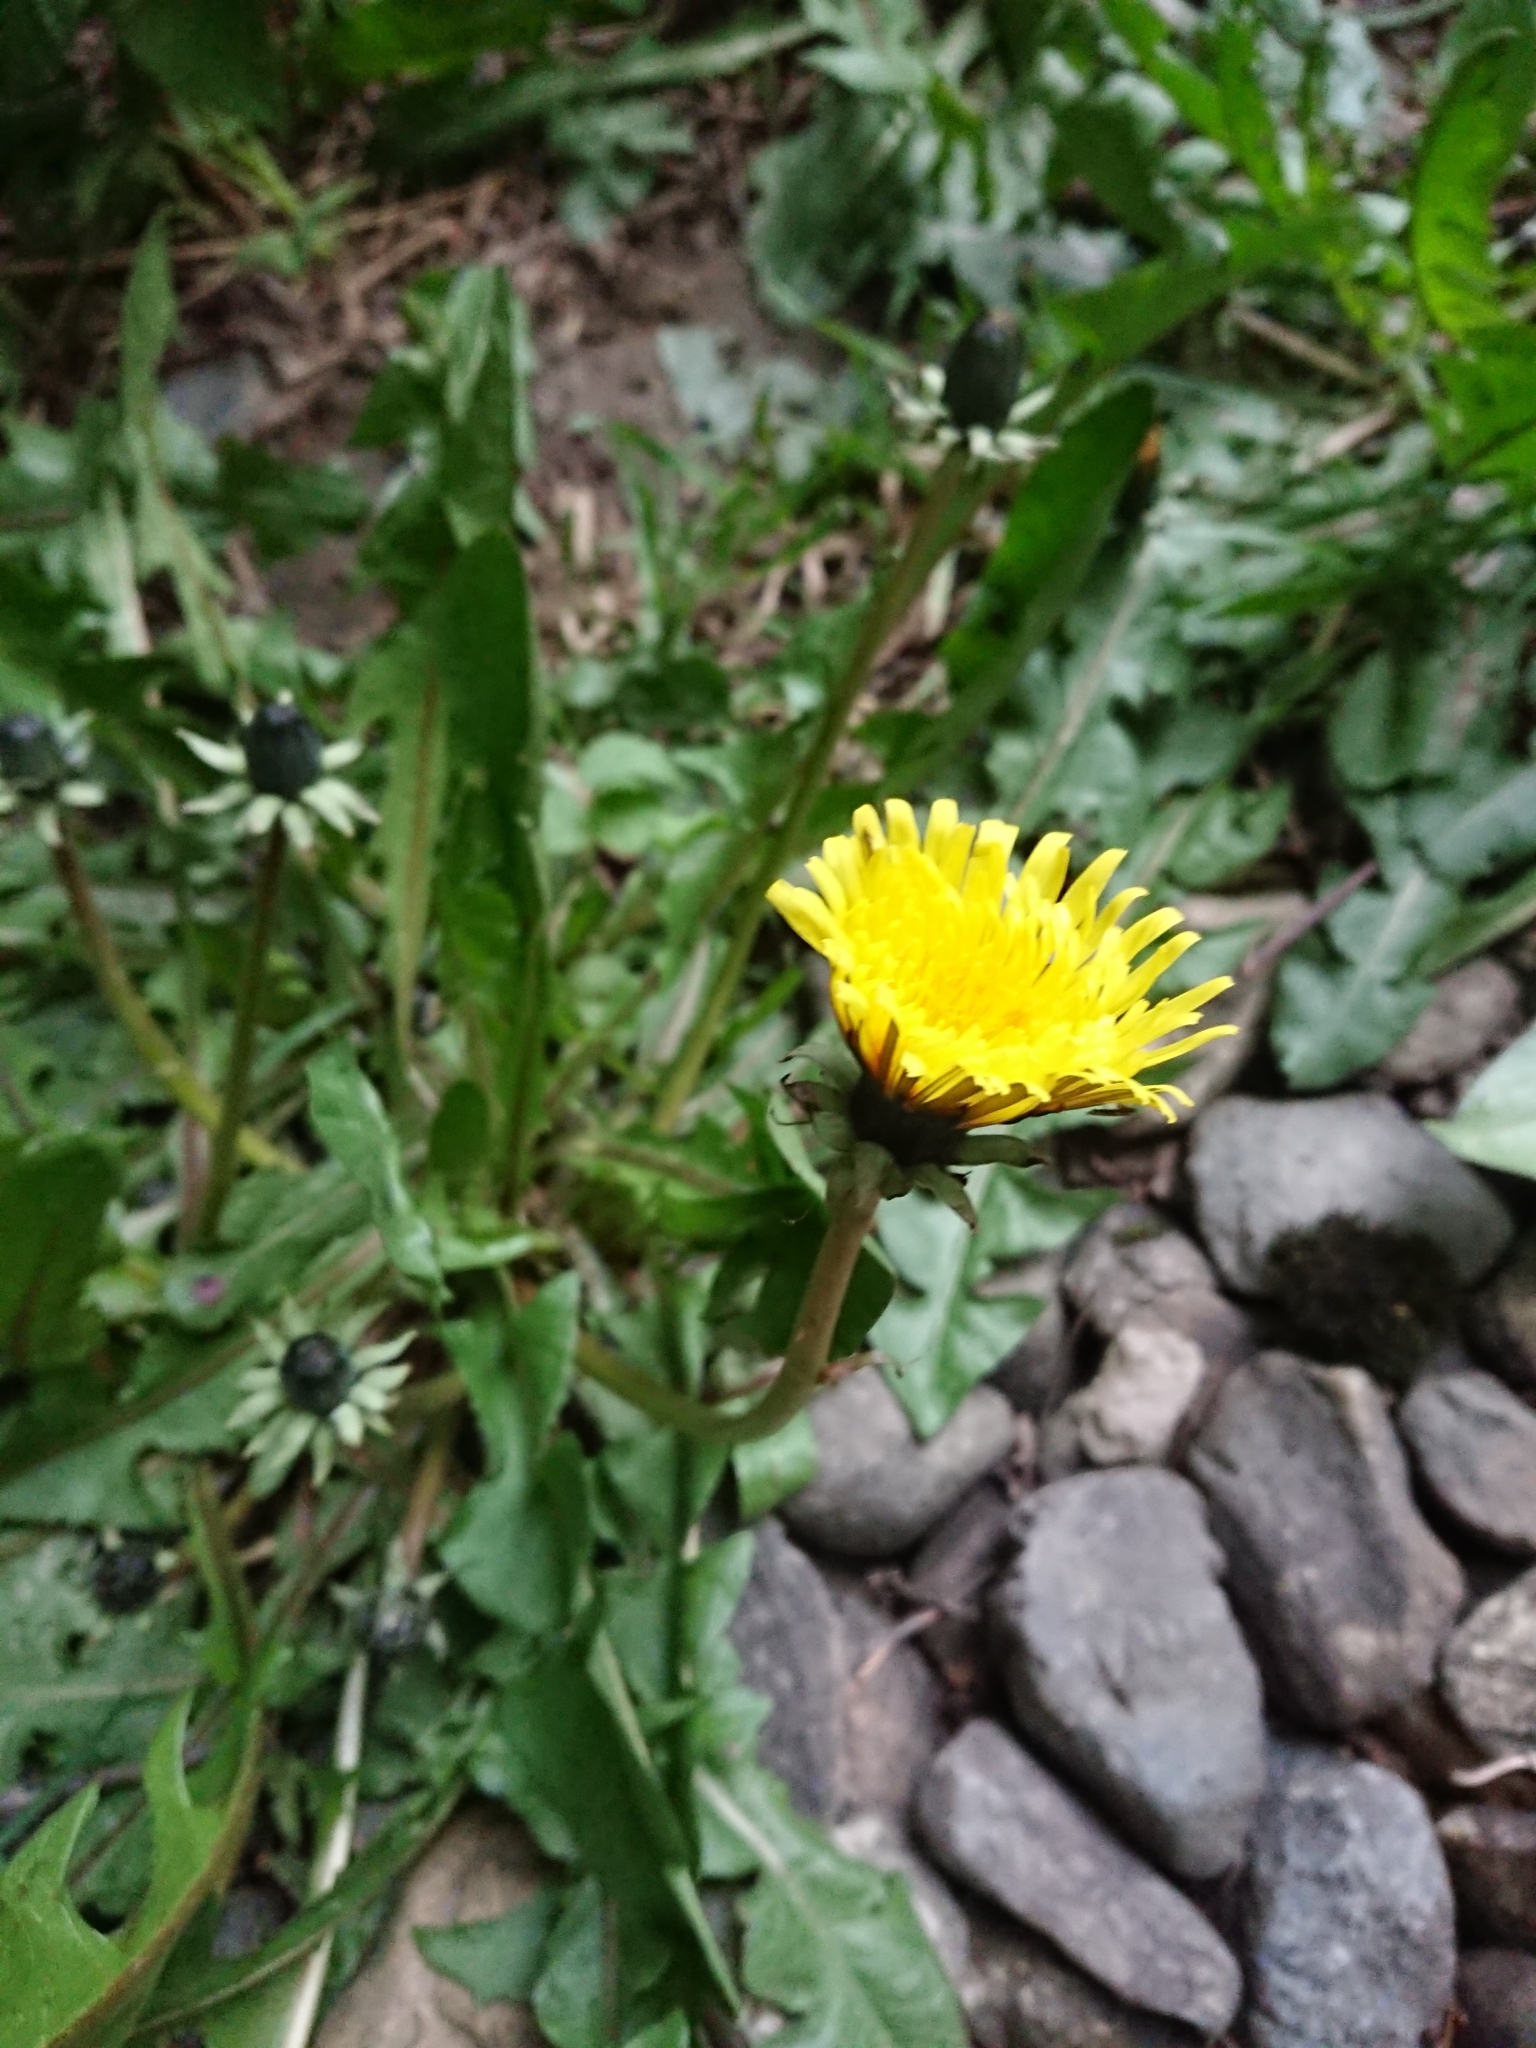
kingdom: Plantae
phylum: Tracheophyta
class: Magnoliopsida
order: Asterales
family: Asteraceae
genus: Taraxacum
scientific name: Taraxacum officinale
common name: Common dandelion
